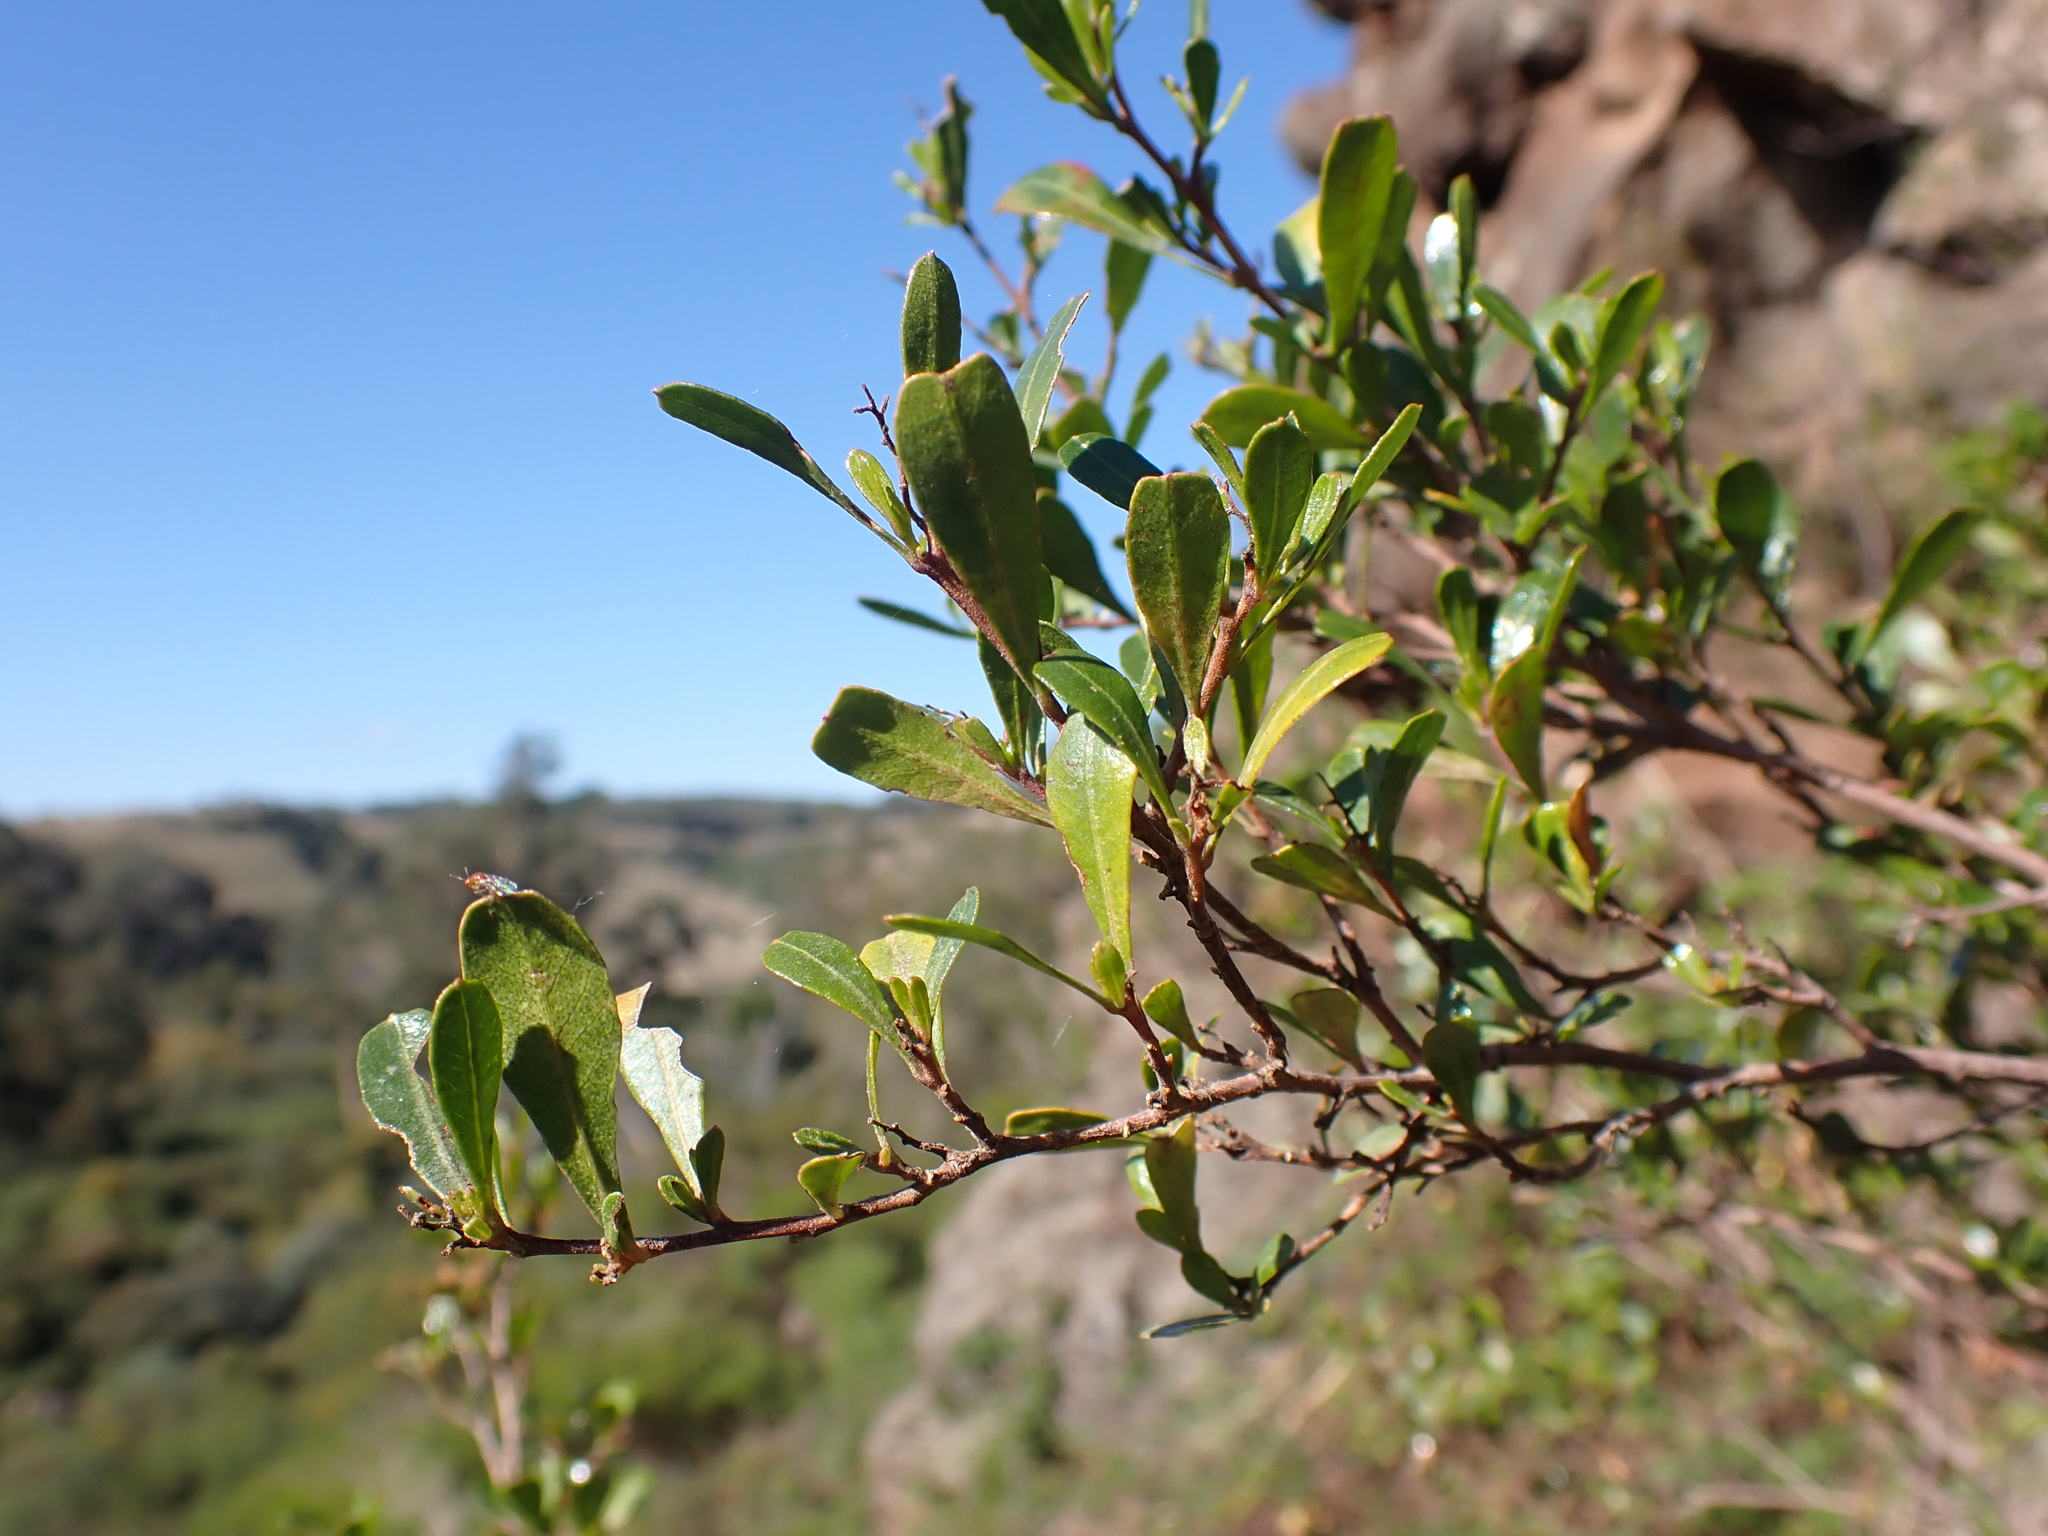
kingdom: Plantae
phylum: Tracheophyta
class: Magnoliopsida
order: Sapindales
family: Sapindaceae
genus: Dodonaea
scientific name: Dodonaea viscosa
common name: Hopbush
